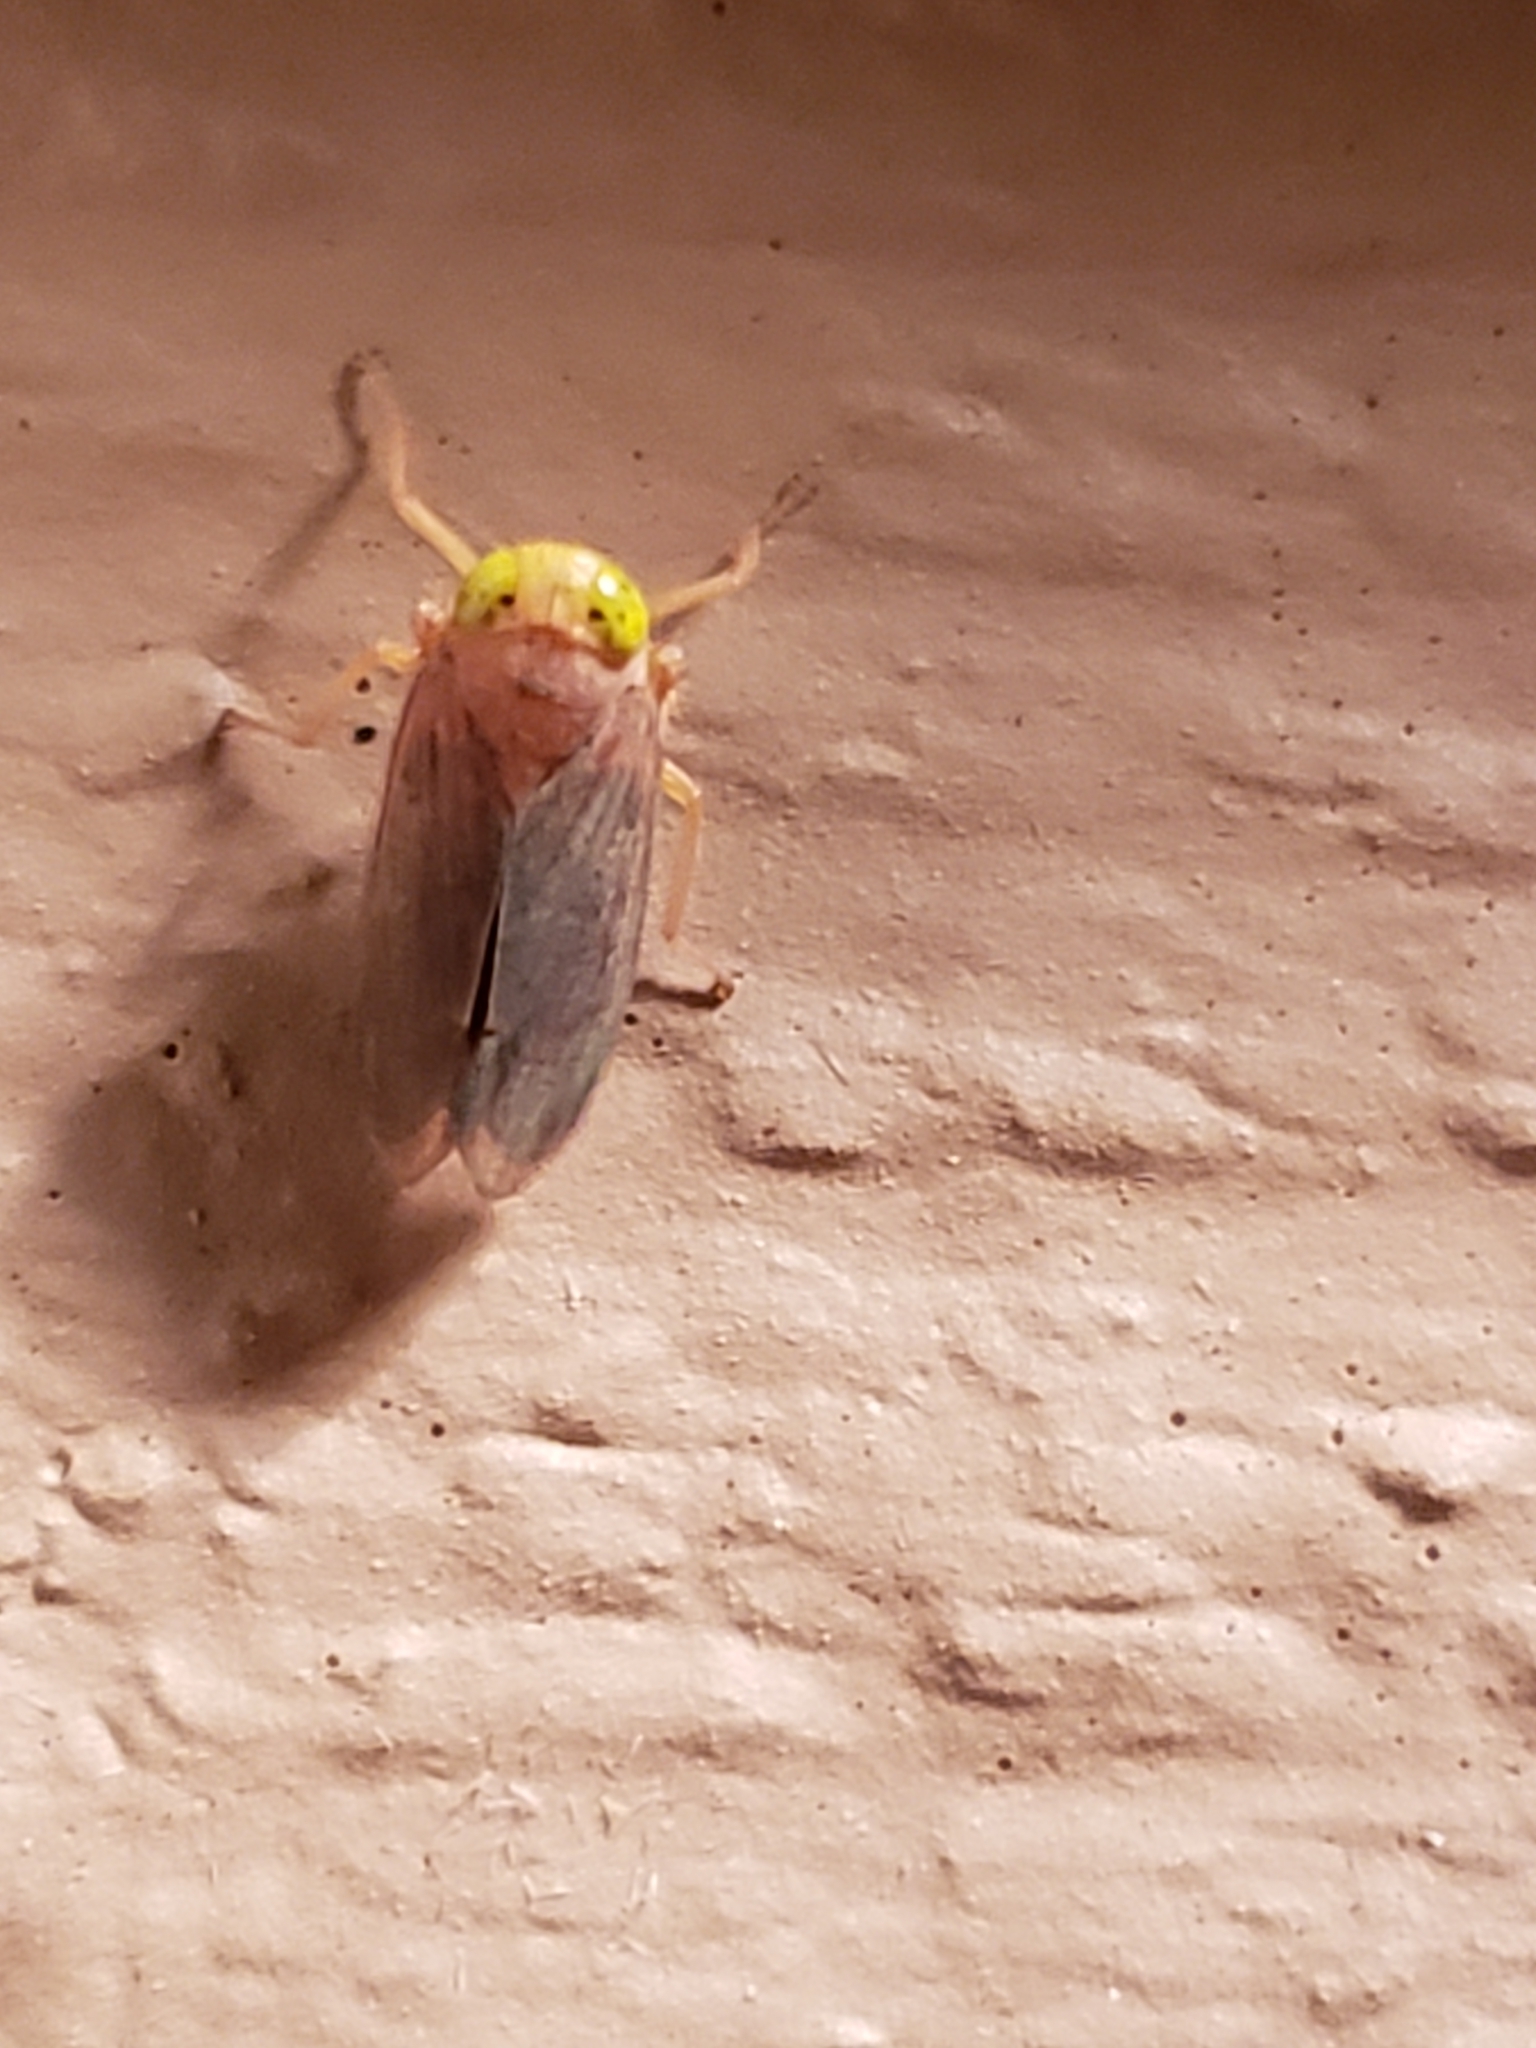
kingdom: Animalia
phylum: Arthropoda
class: Insecta
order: Hemiptera
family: Cicadellidae
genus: Jikradia
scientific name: Jikradia olitoria
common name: Coppery leafhopper
